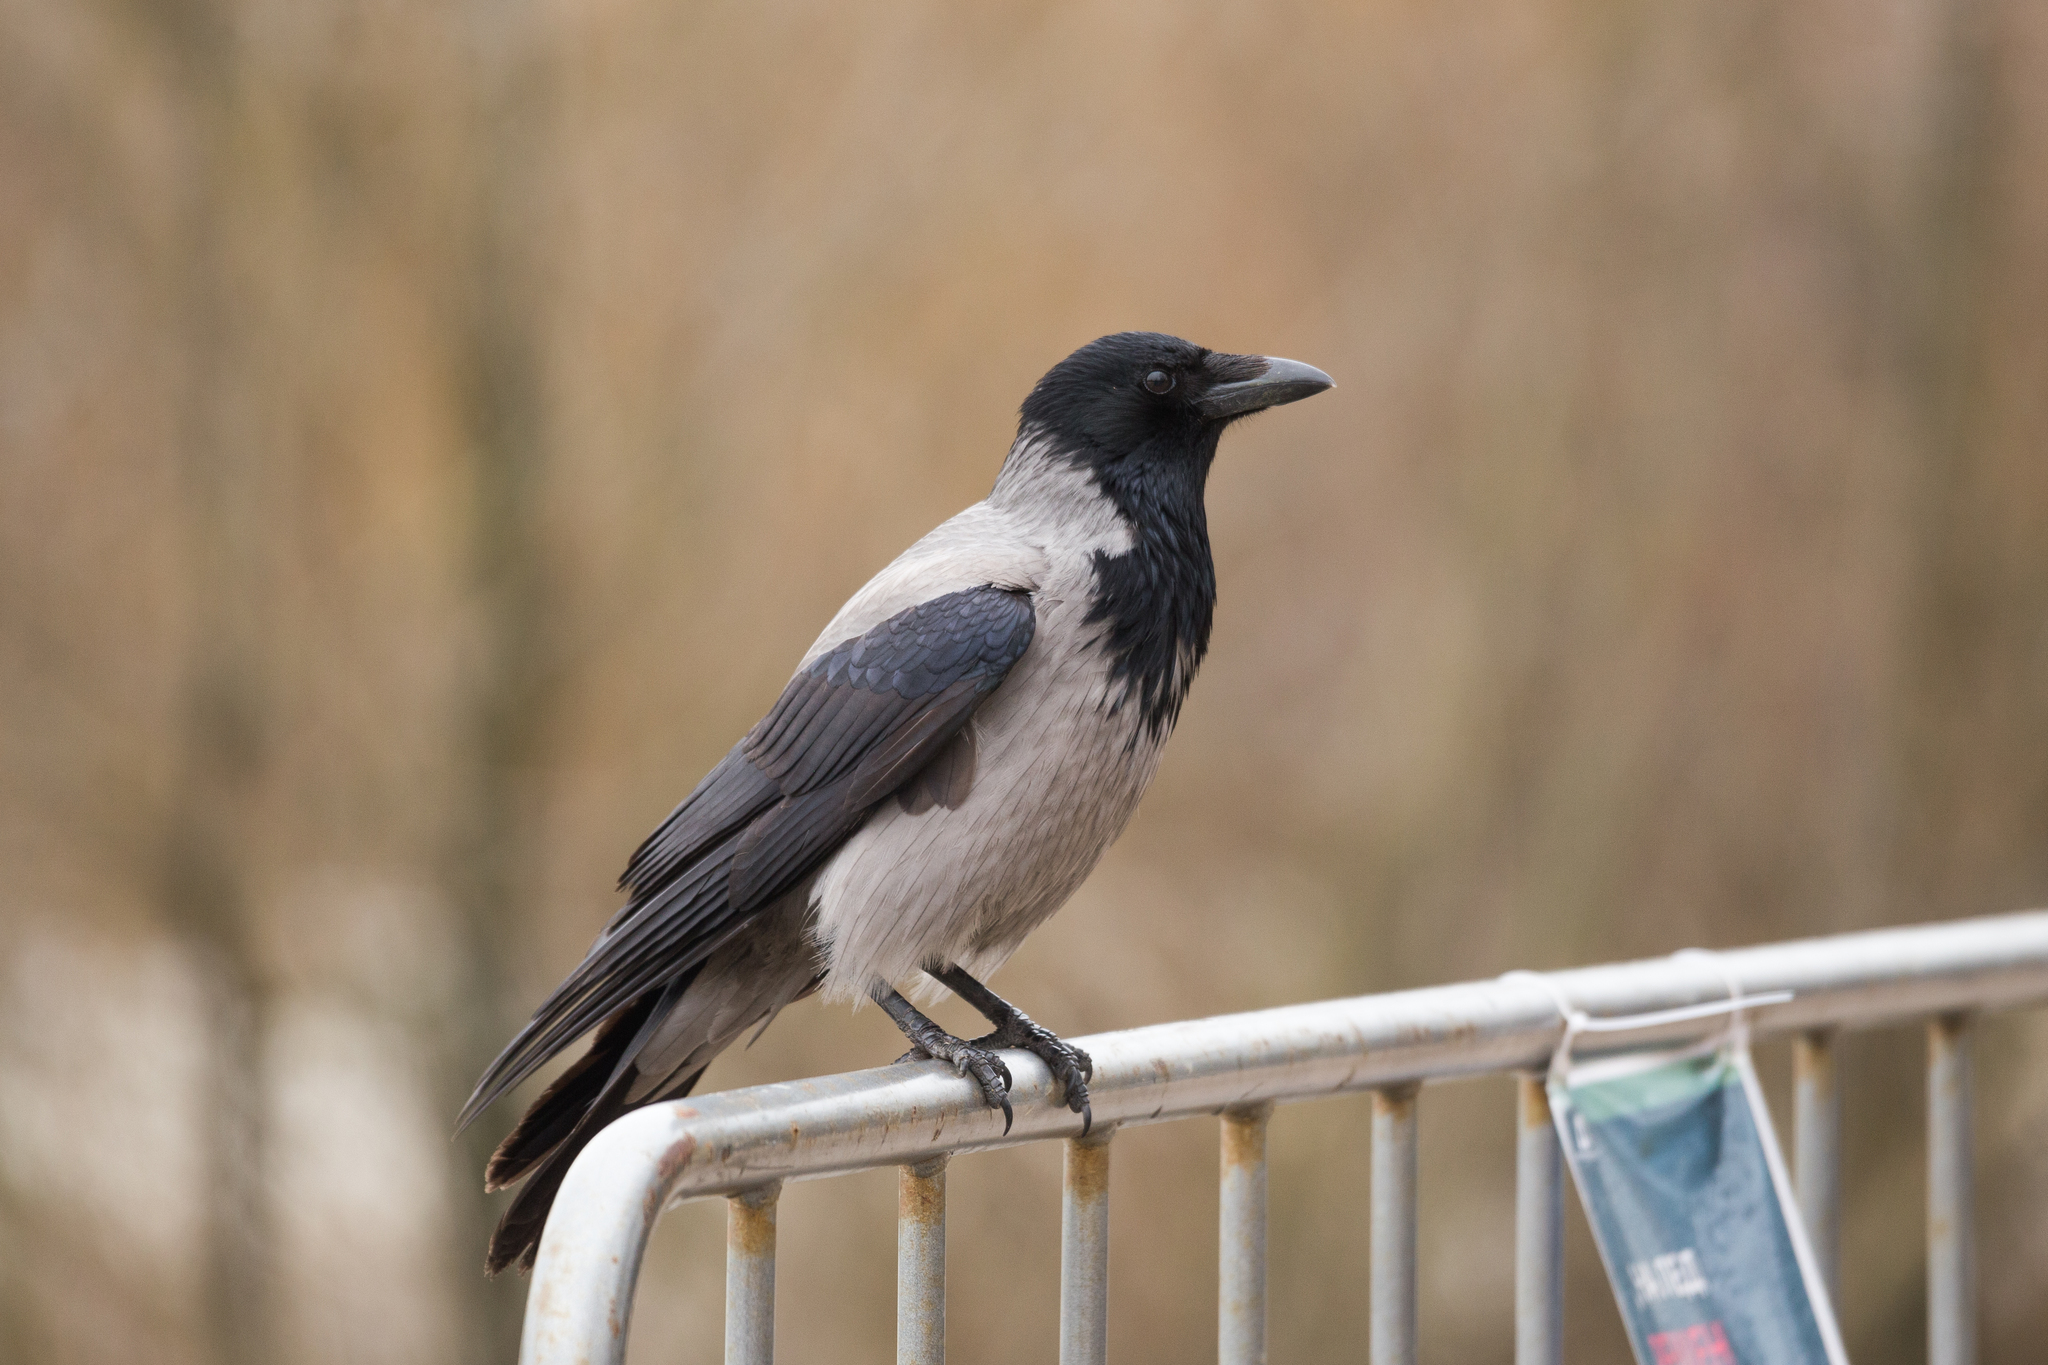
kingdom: Animalia
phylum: Chordata
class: Aves
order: Passeriformes
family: Corvidae
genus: Corvus
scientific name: Corvus cornix
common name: Hooded crow
